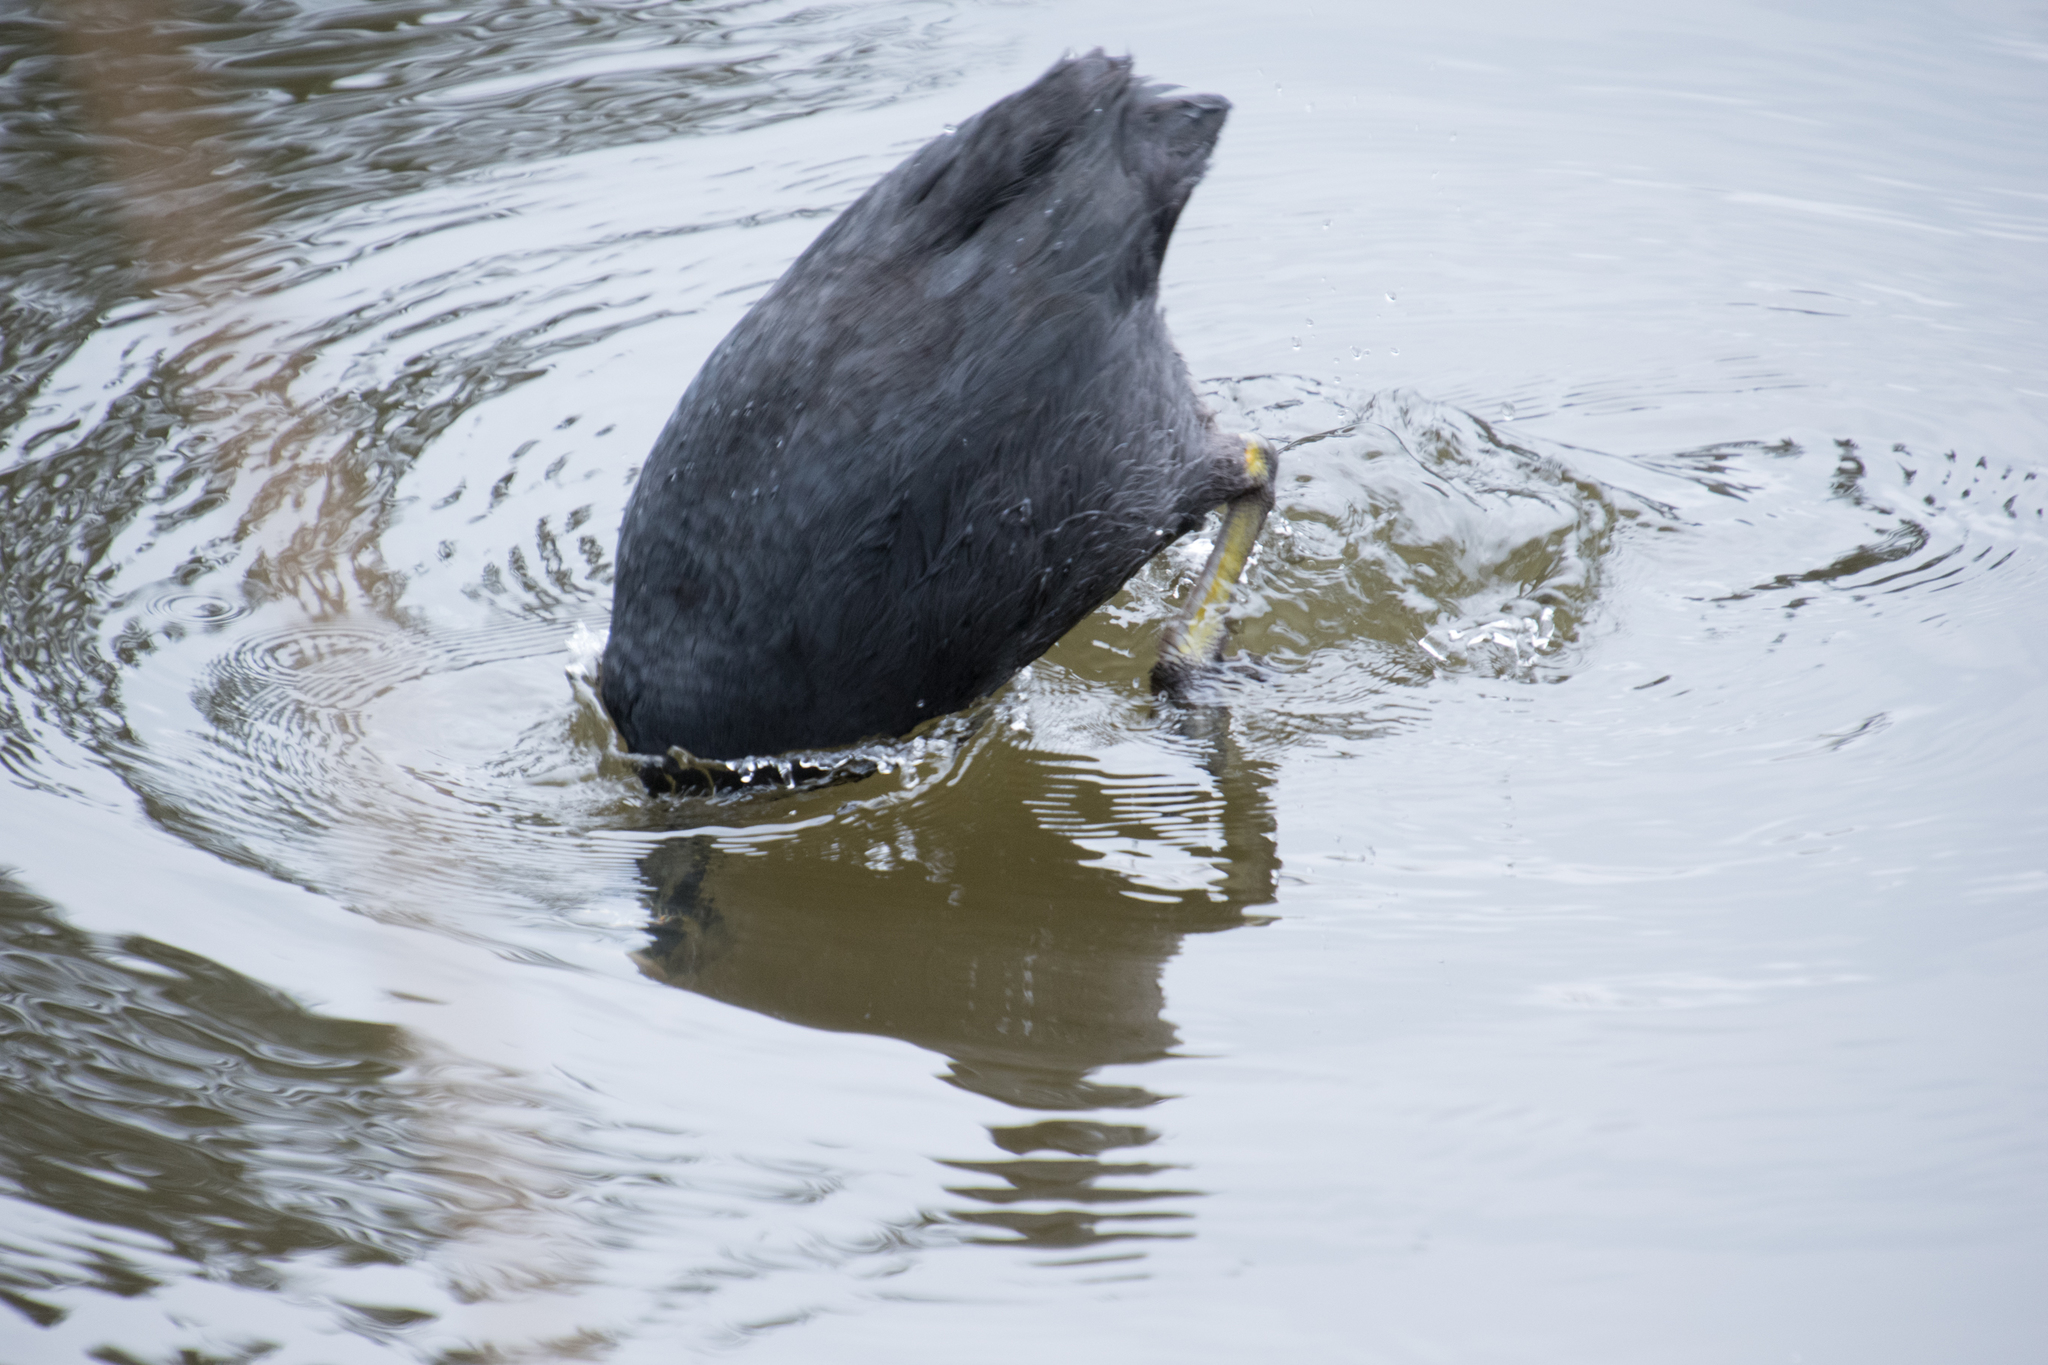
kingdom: Animalia
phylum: Chordata
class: Aves
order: Gruiformes
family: Rallidae
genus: Fulica
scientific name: Fulica atra
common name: Eurasian coot
